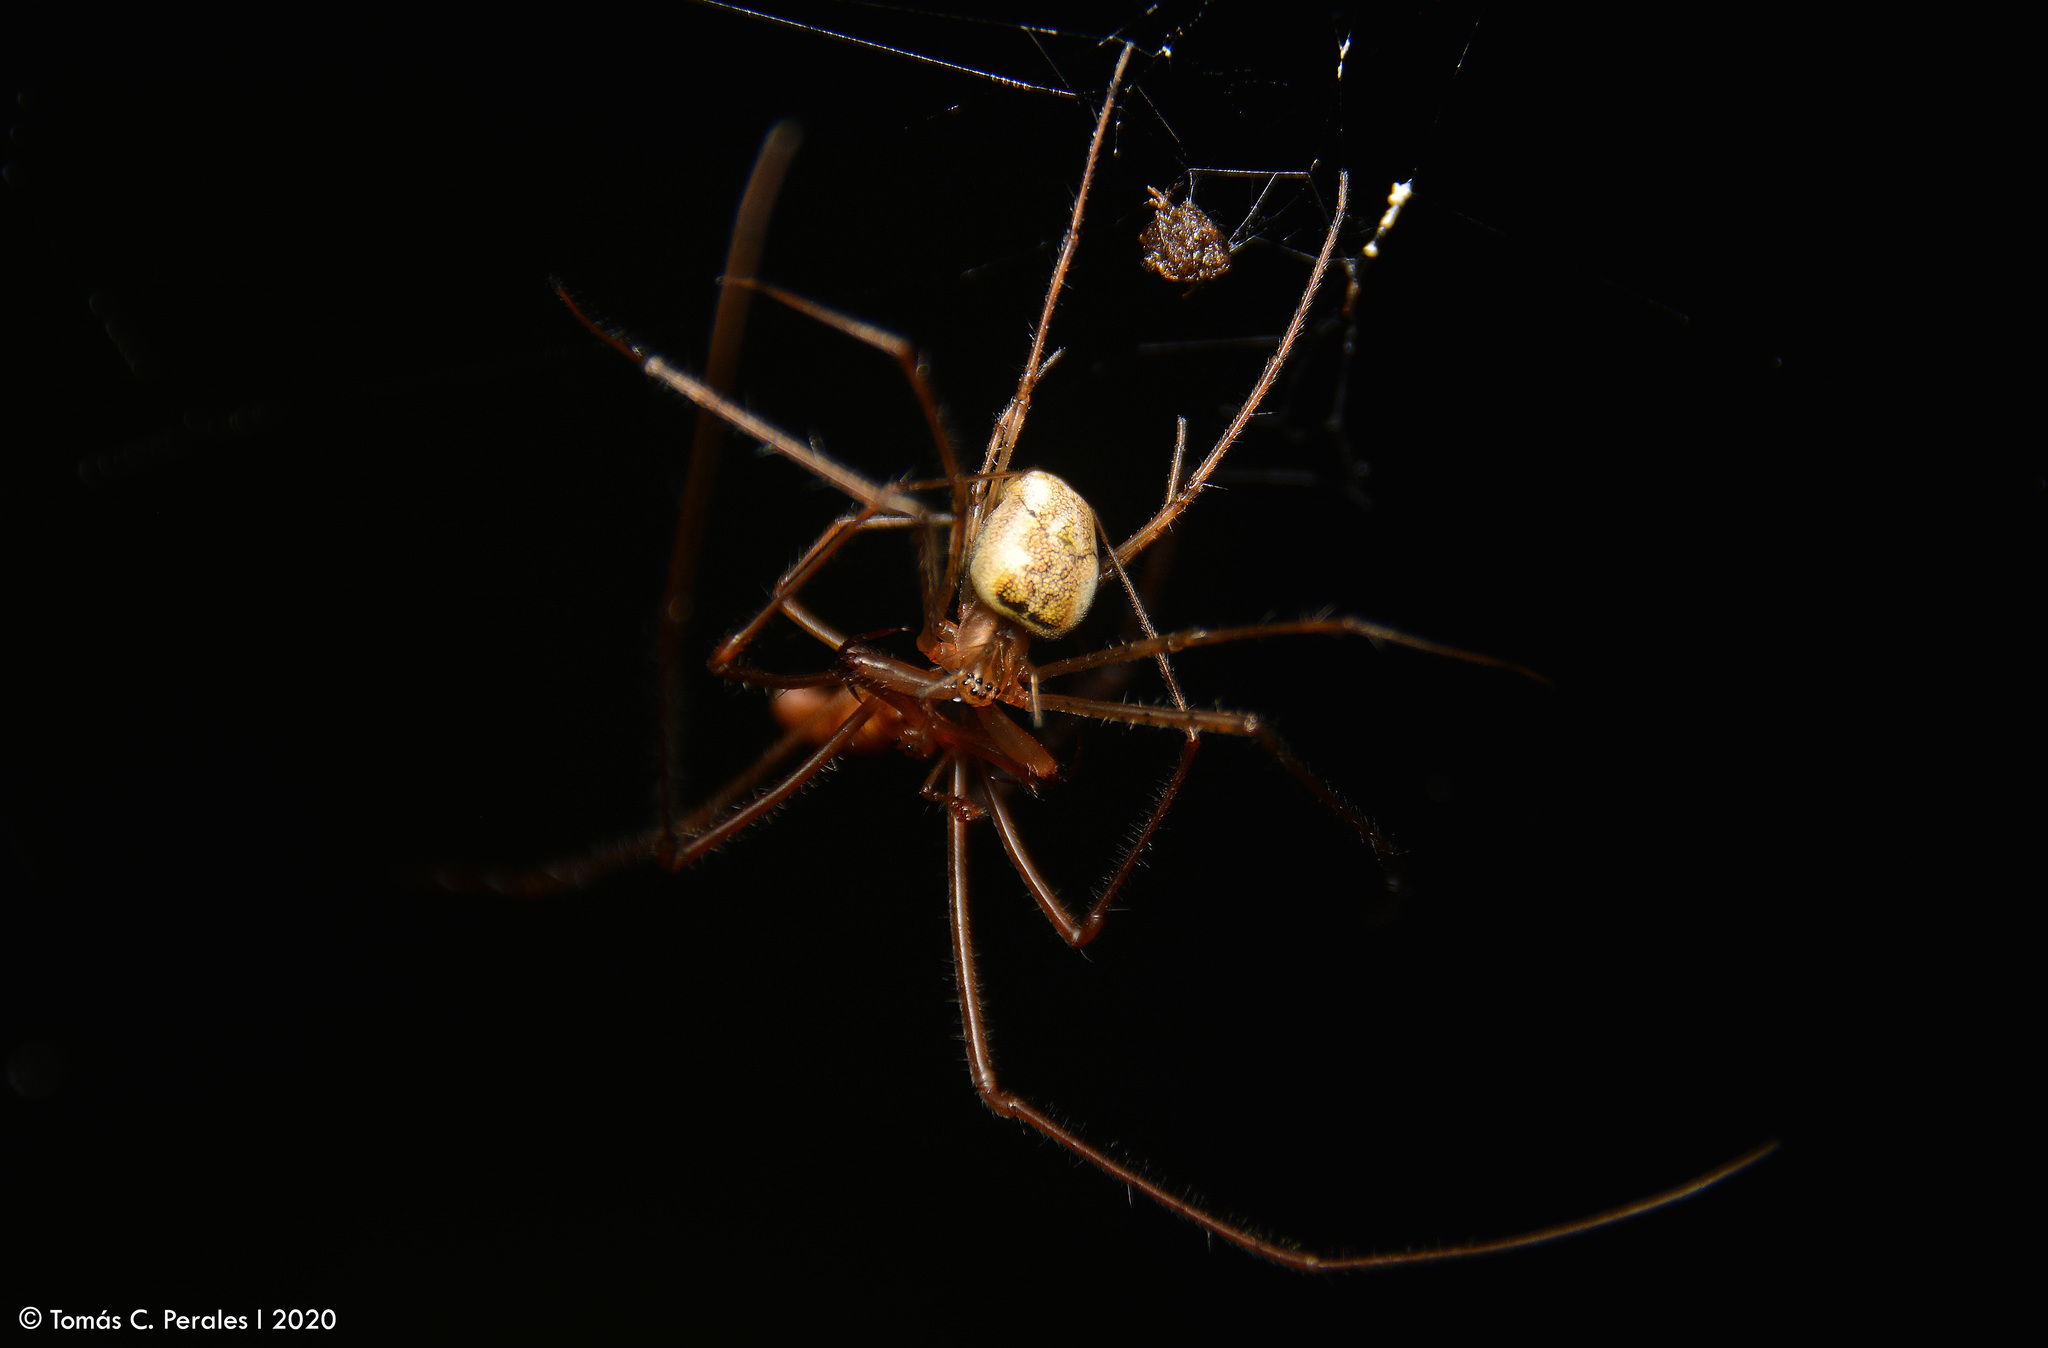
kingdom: Animalia
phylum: Arthropoda
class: Arachnida
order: Araneae
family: Tetragnathidae
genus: Tetragnatha
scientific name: Tetragnatha
